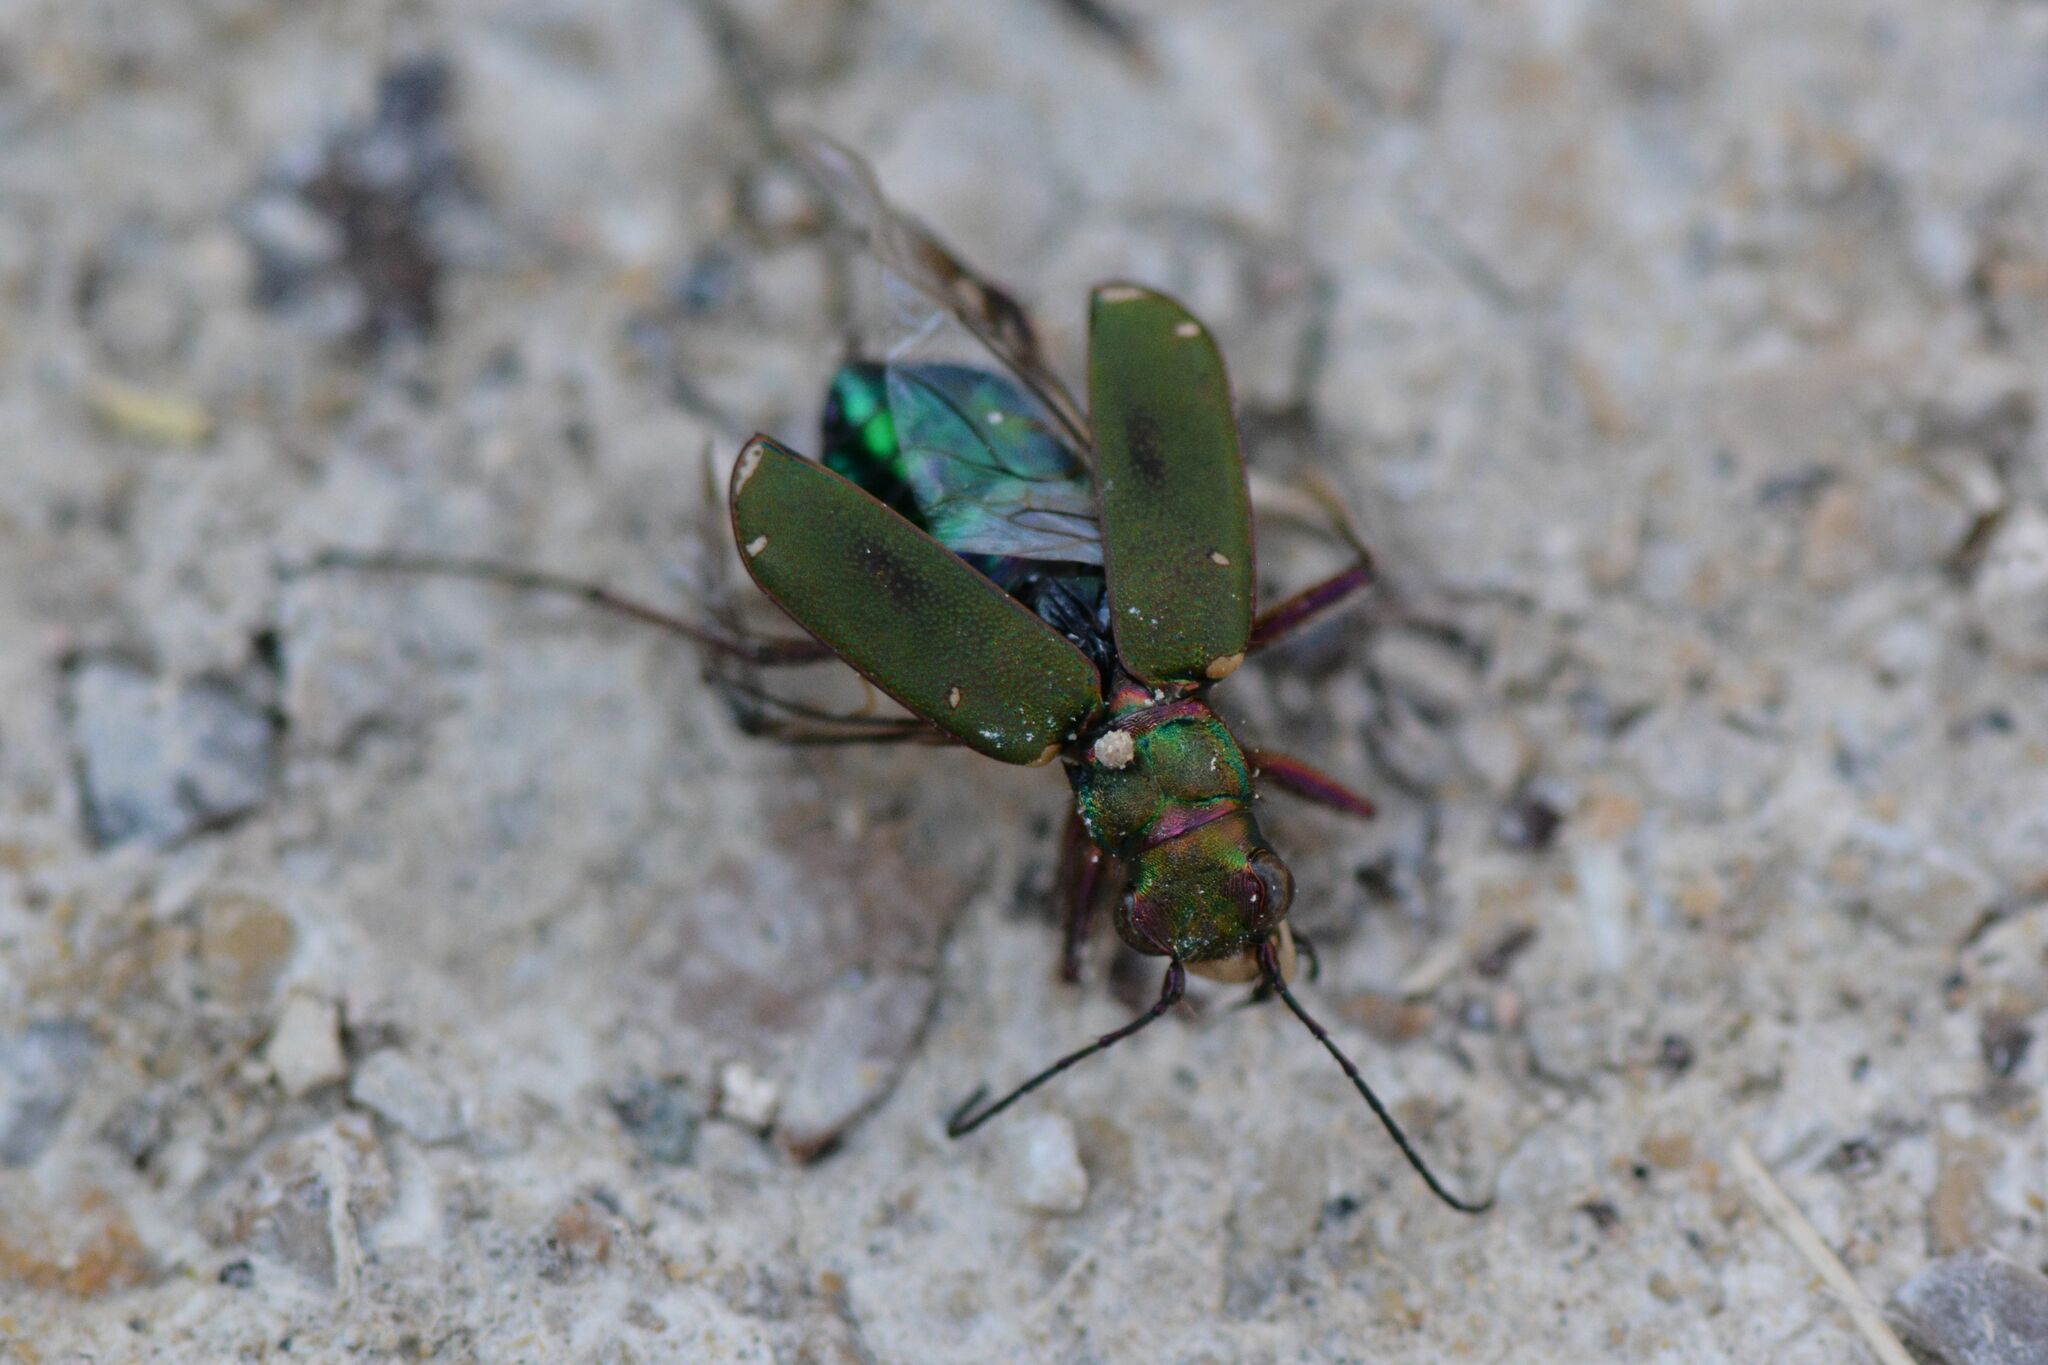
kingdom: Animalia
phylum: Arthropoda
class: Insecta
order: Coleoptera
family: Carabidae
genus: Cicindela
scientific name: Cicindela campestris
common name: Common tiger beetle
